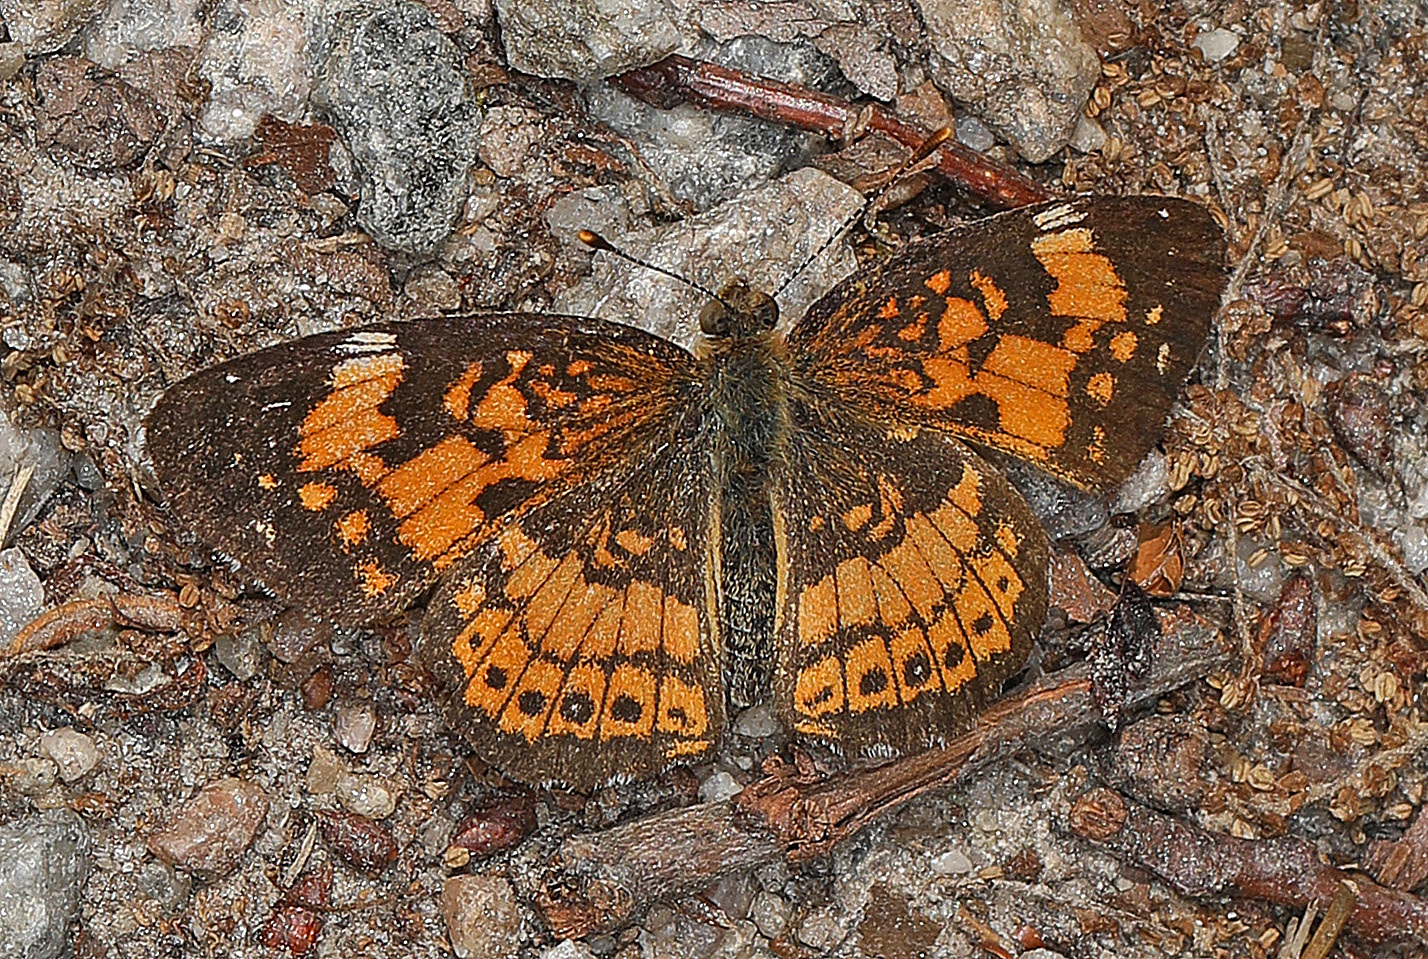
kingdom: Animalia
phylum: Arthropoda
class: Insecta
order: Lepidoptera
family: Nymphalidae
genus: Chlosyne
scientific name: Chlosyne nycteis
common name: Silvery checkerspot
